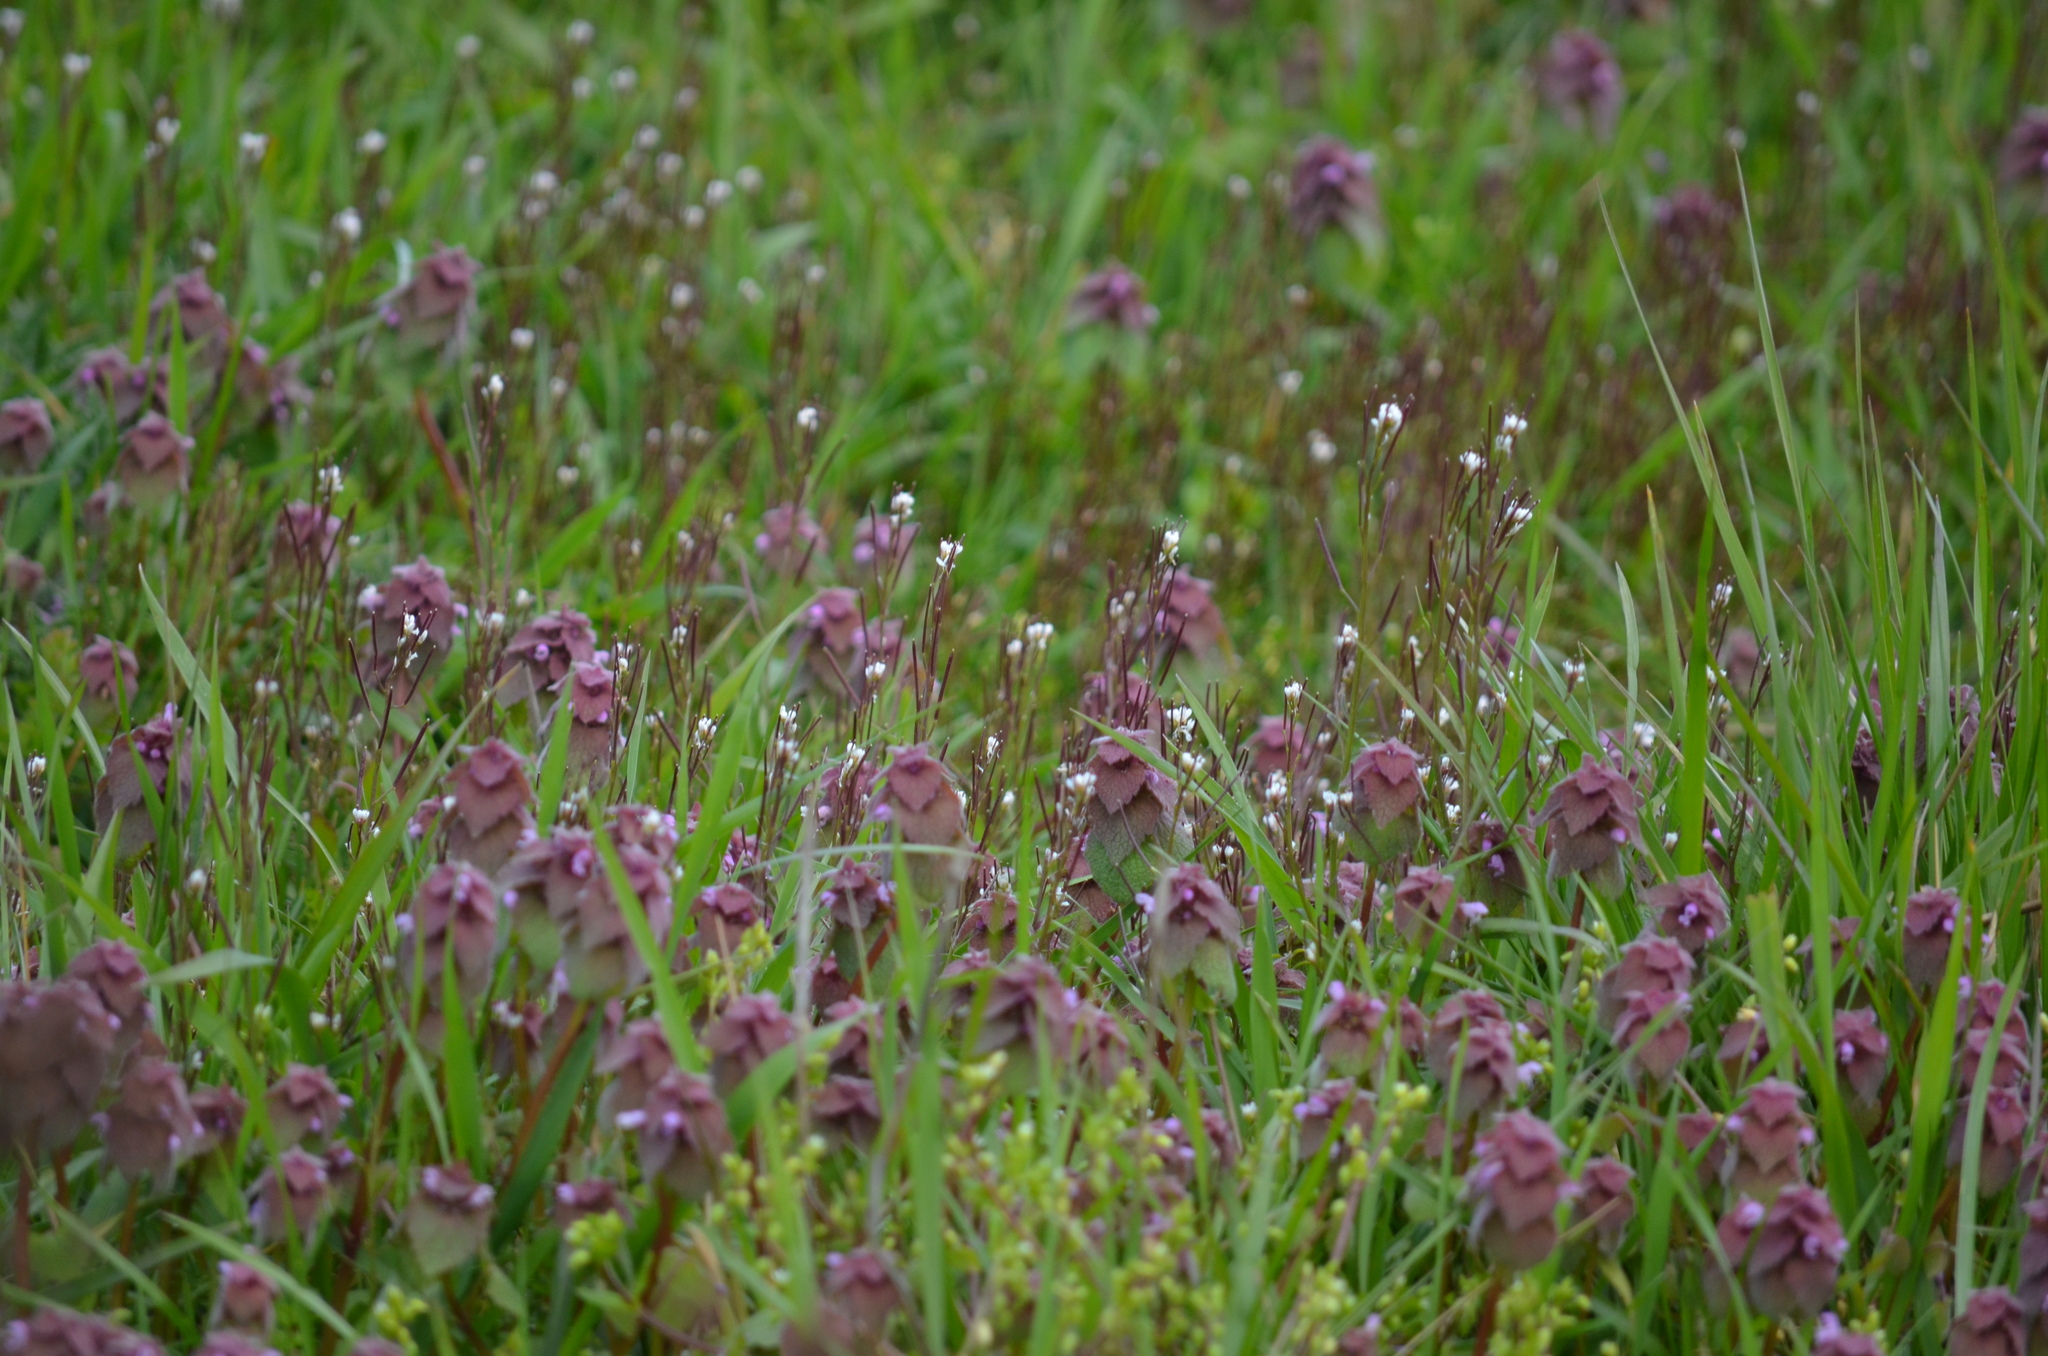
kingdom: Plantae
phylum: Tracheophyta
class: Magnoliopsida
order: Lamiales
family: Lamiaceae
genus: Lamium
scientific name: Lamium purpureum
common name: Red dead-nettle
